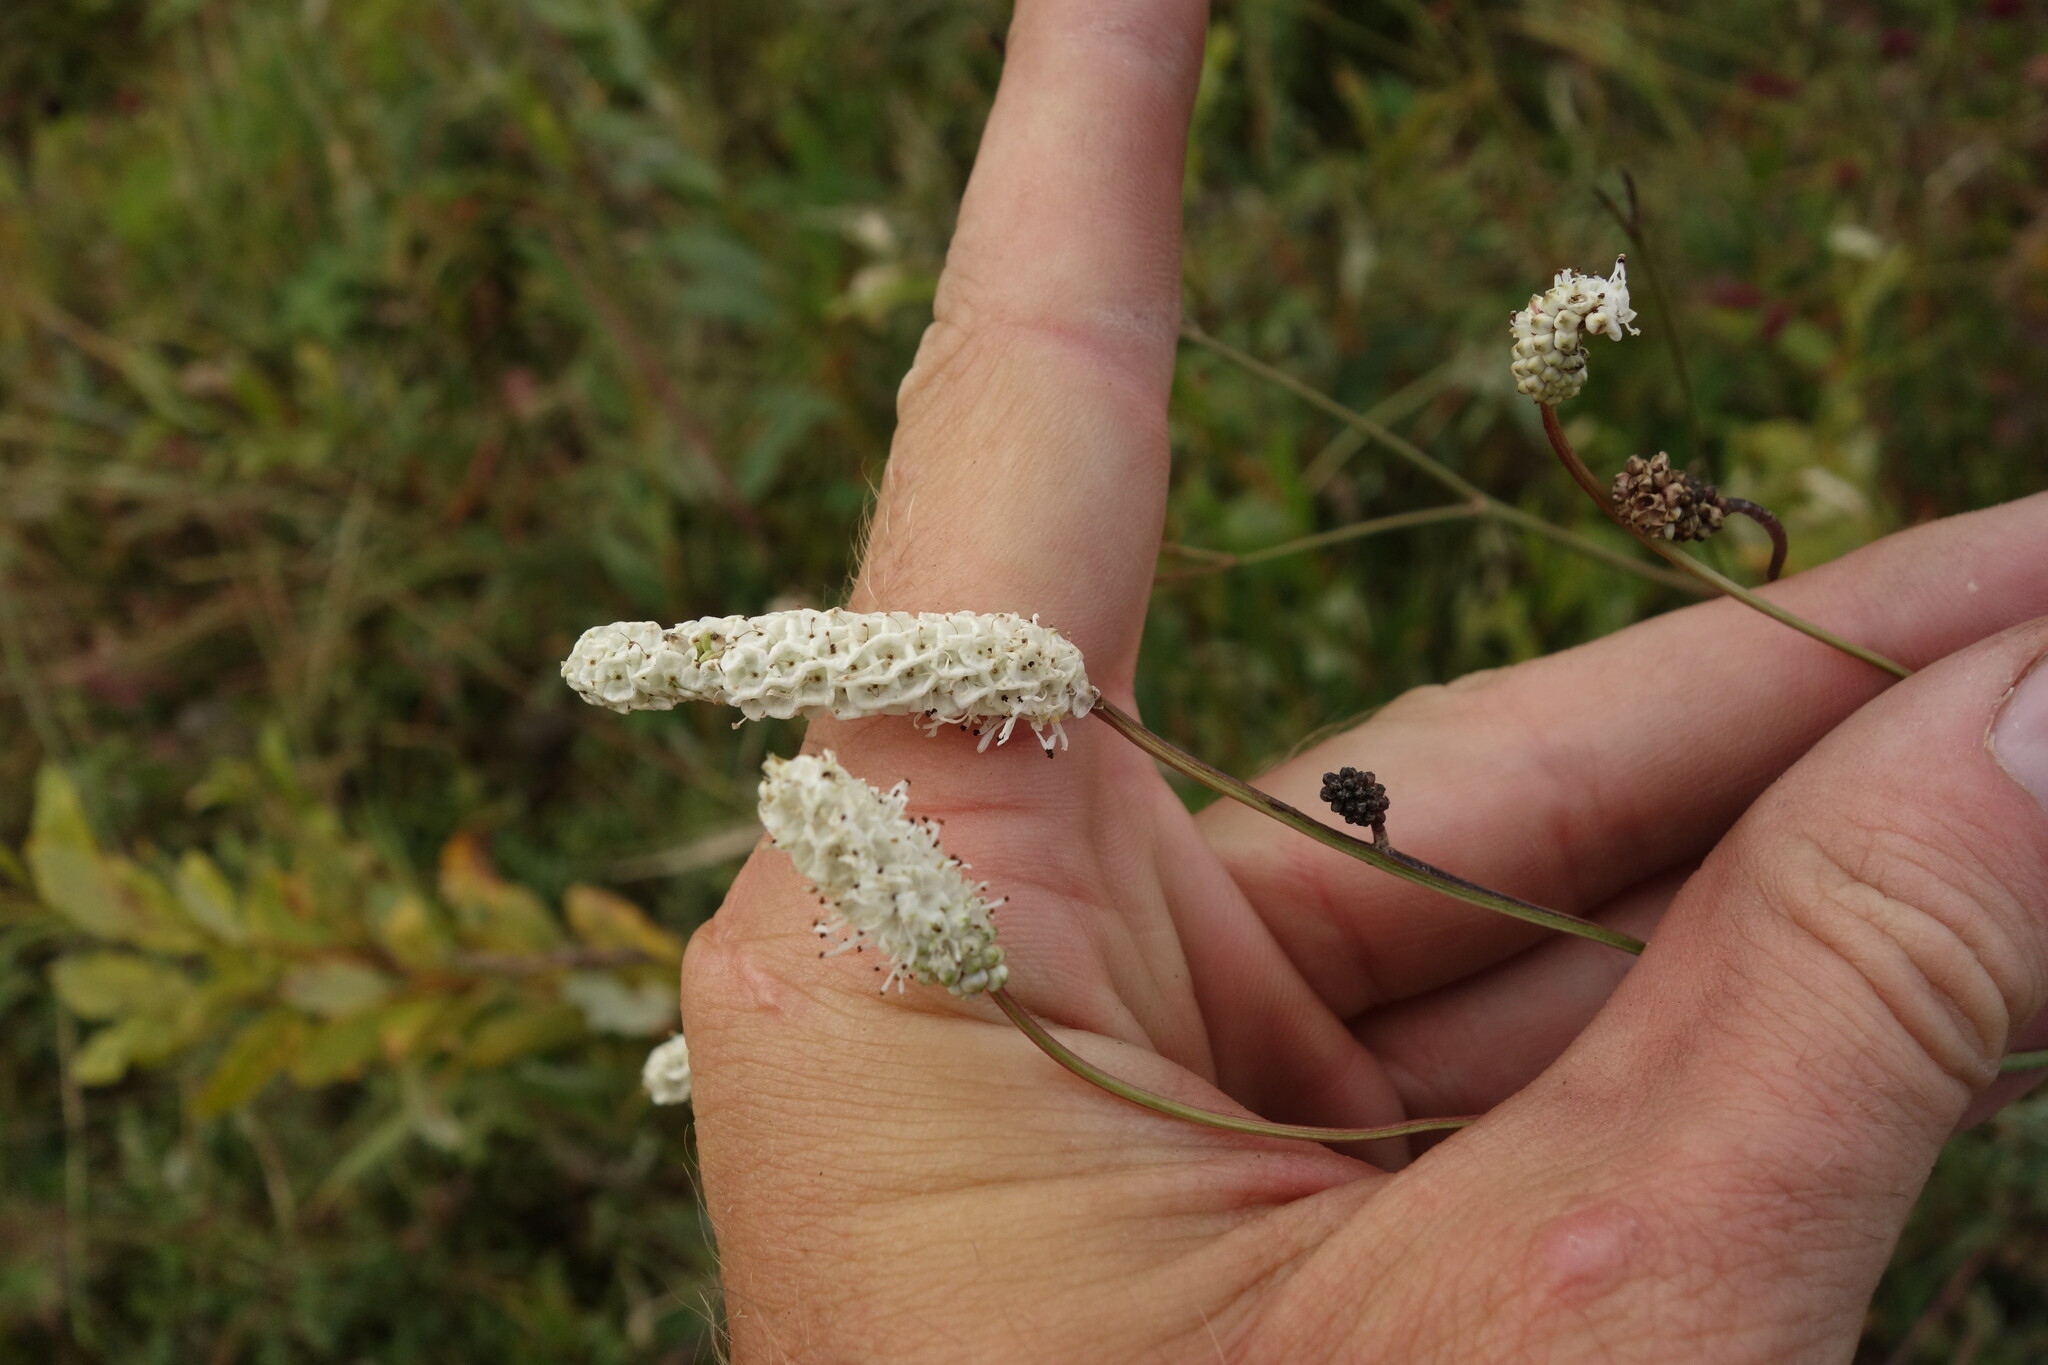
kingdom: Plantae
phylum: Tracheophyta
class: Magnoliopsida
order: Rosales
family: Rosaceae
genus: Poterium
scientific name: Poterium tenuifolium
